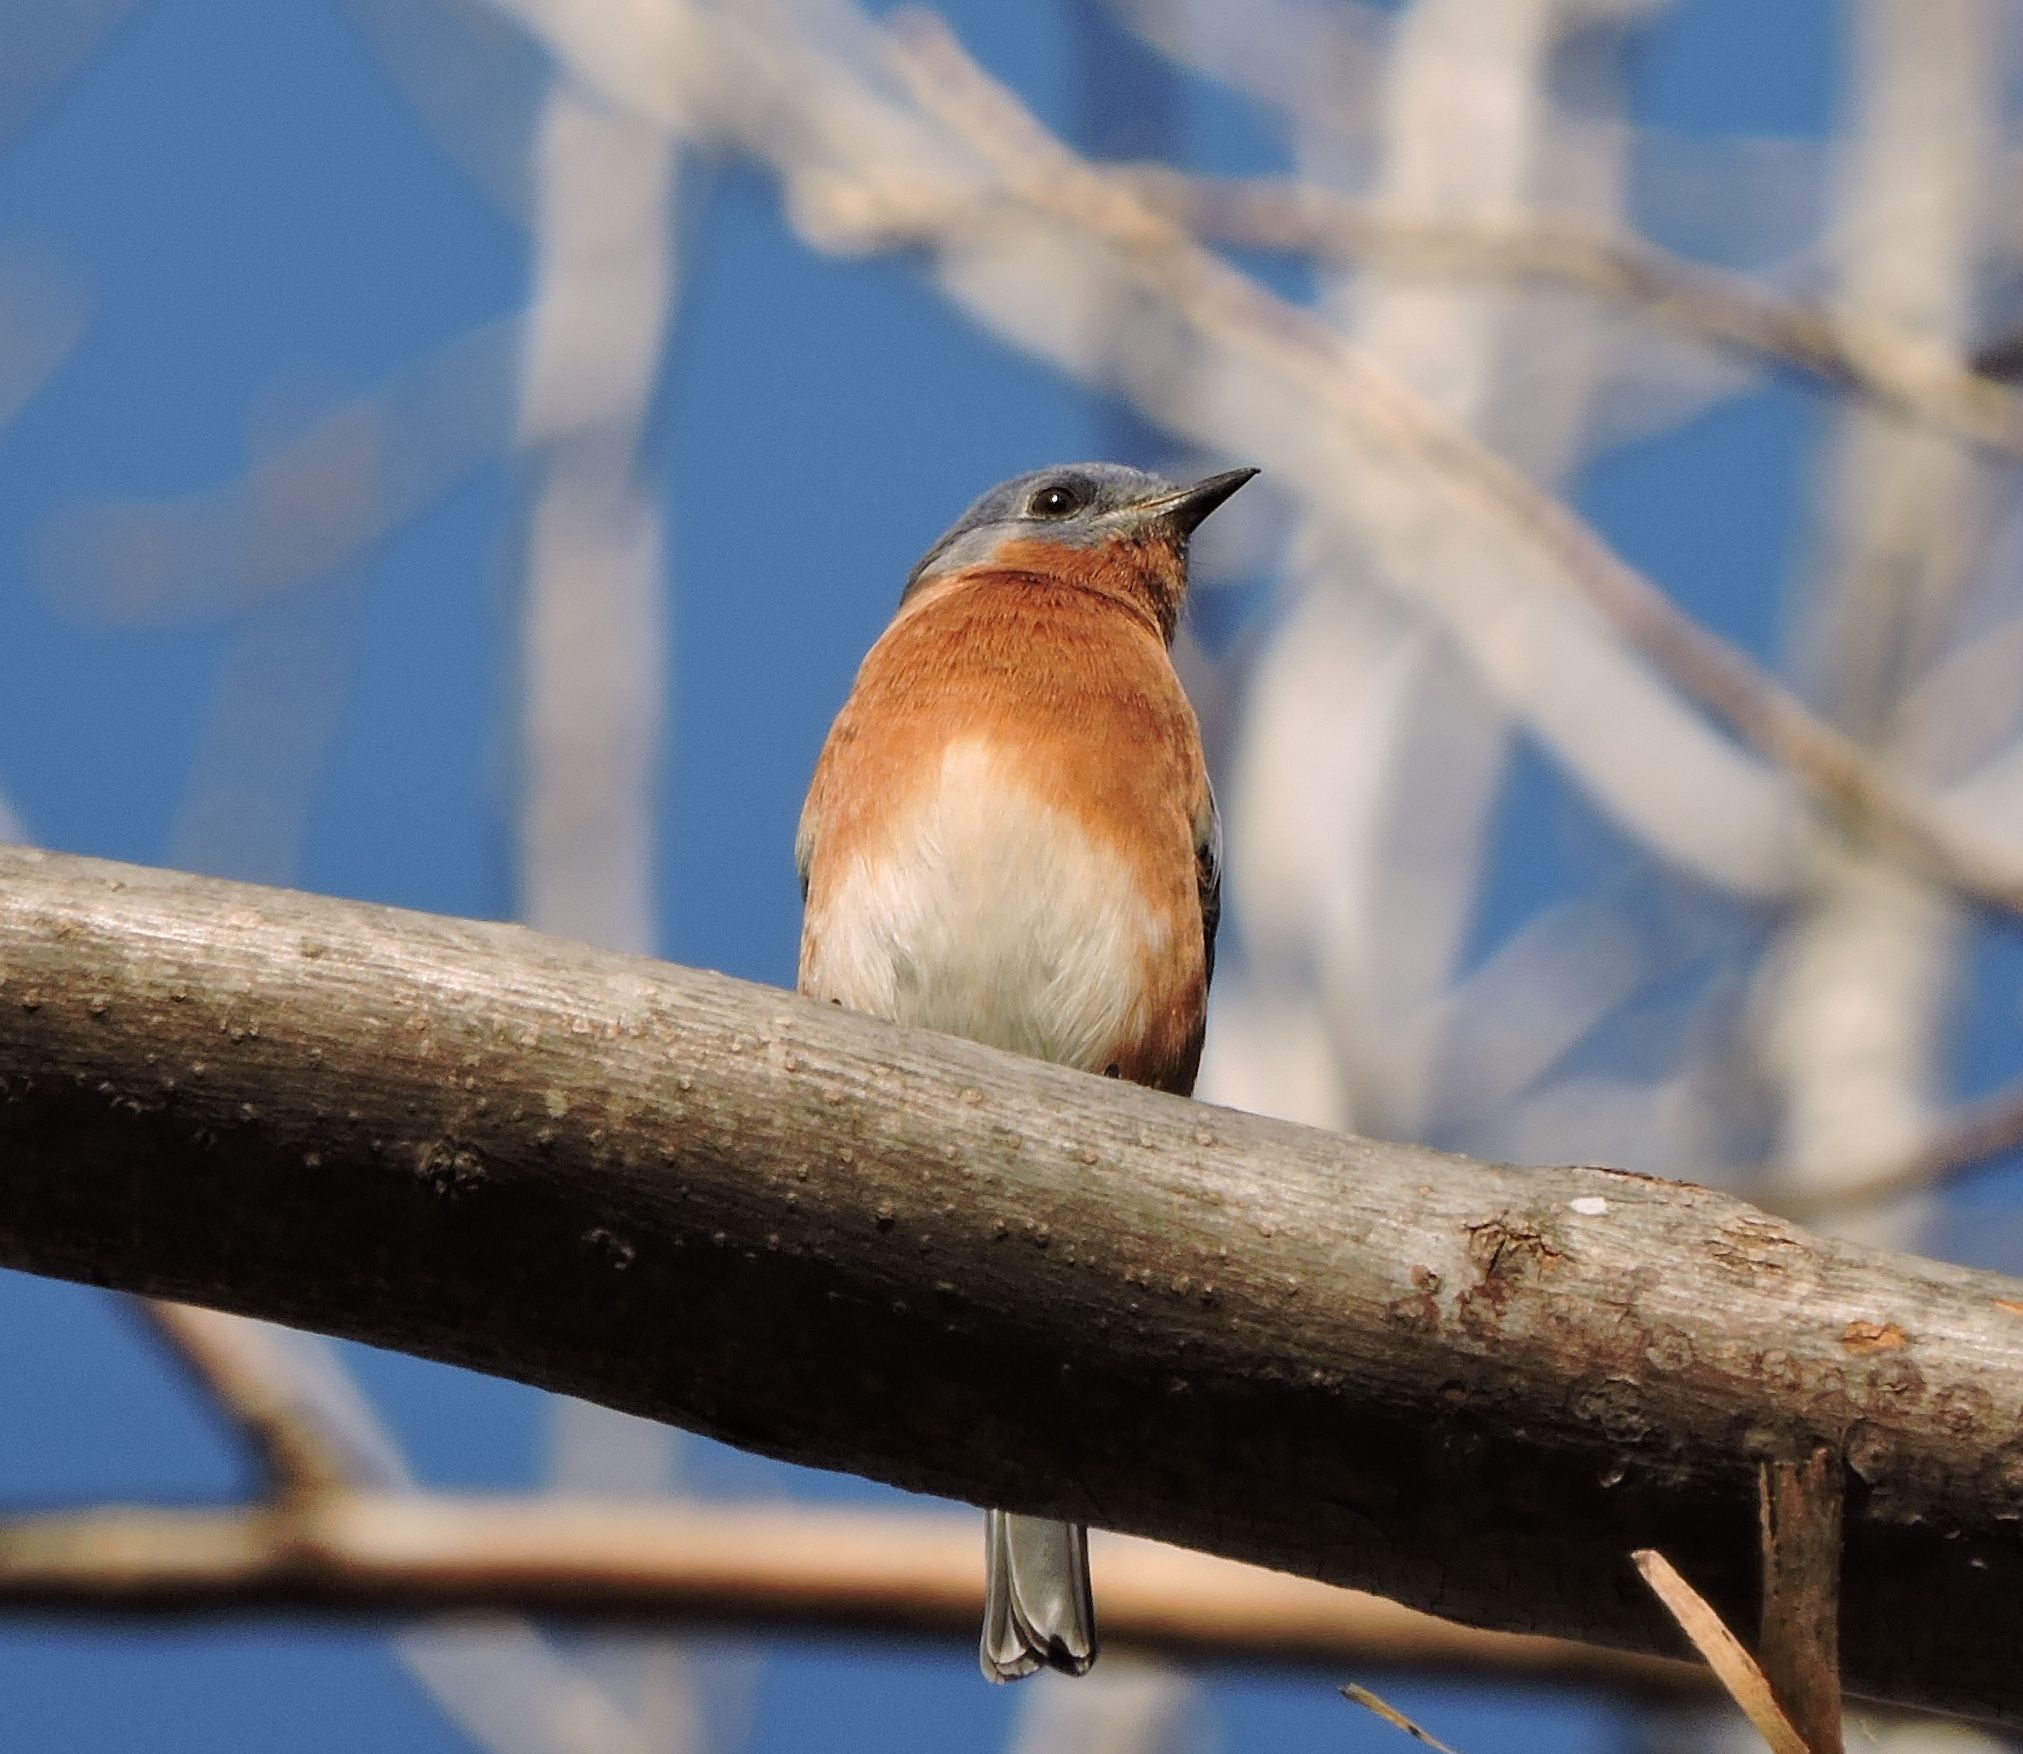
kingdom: Animalia
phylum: Chordata
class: Aves
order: Passeriformes
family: Turdidae
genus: Sialia
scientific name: Sialia sialis
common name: Eastern bluebird
